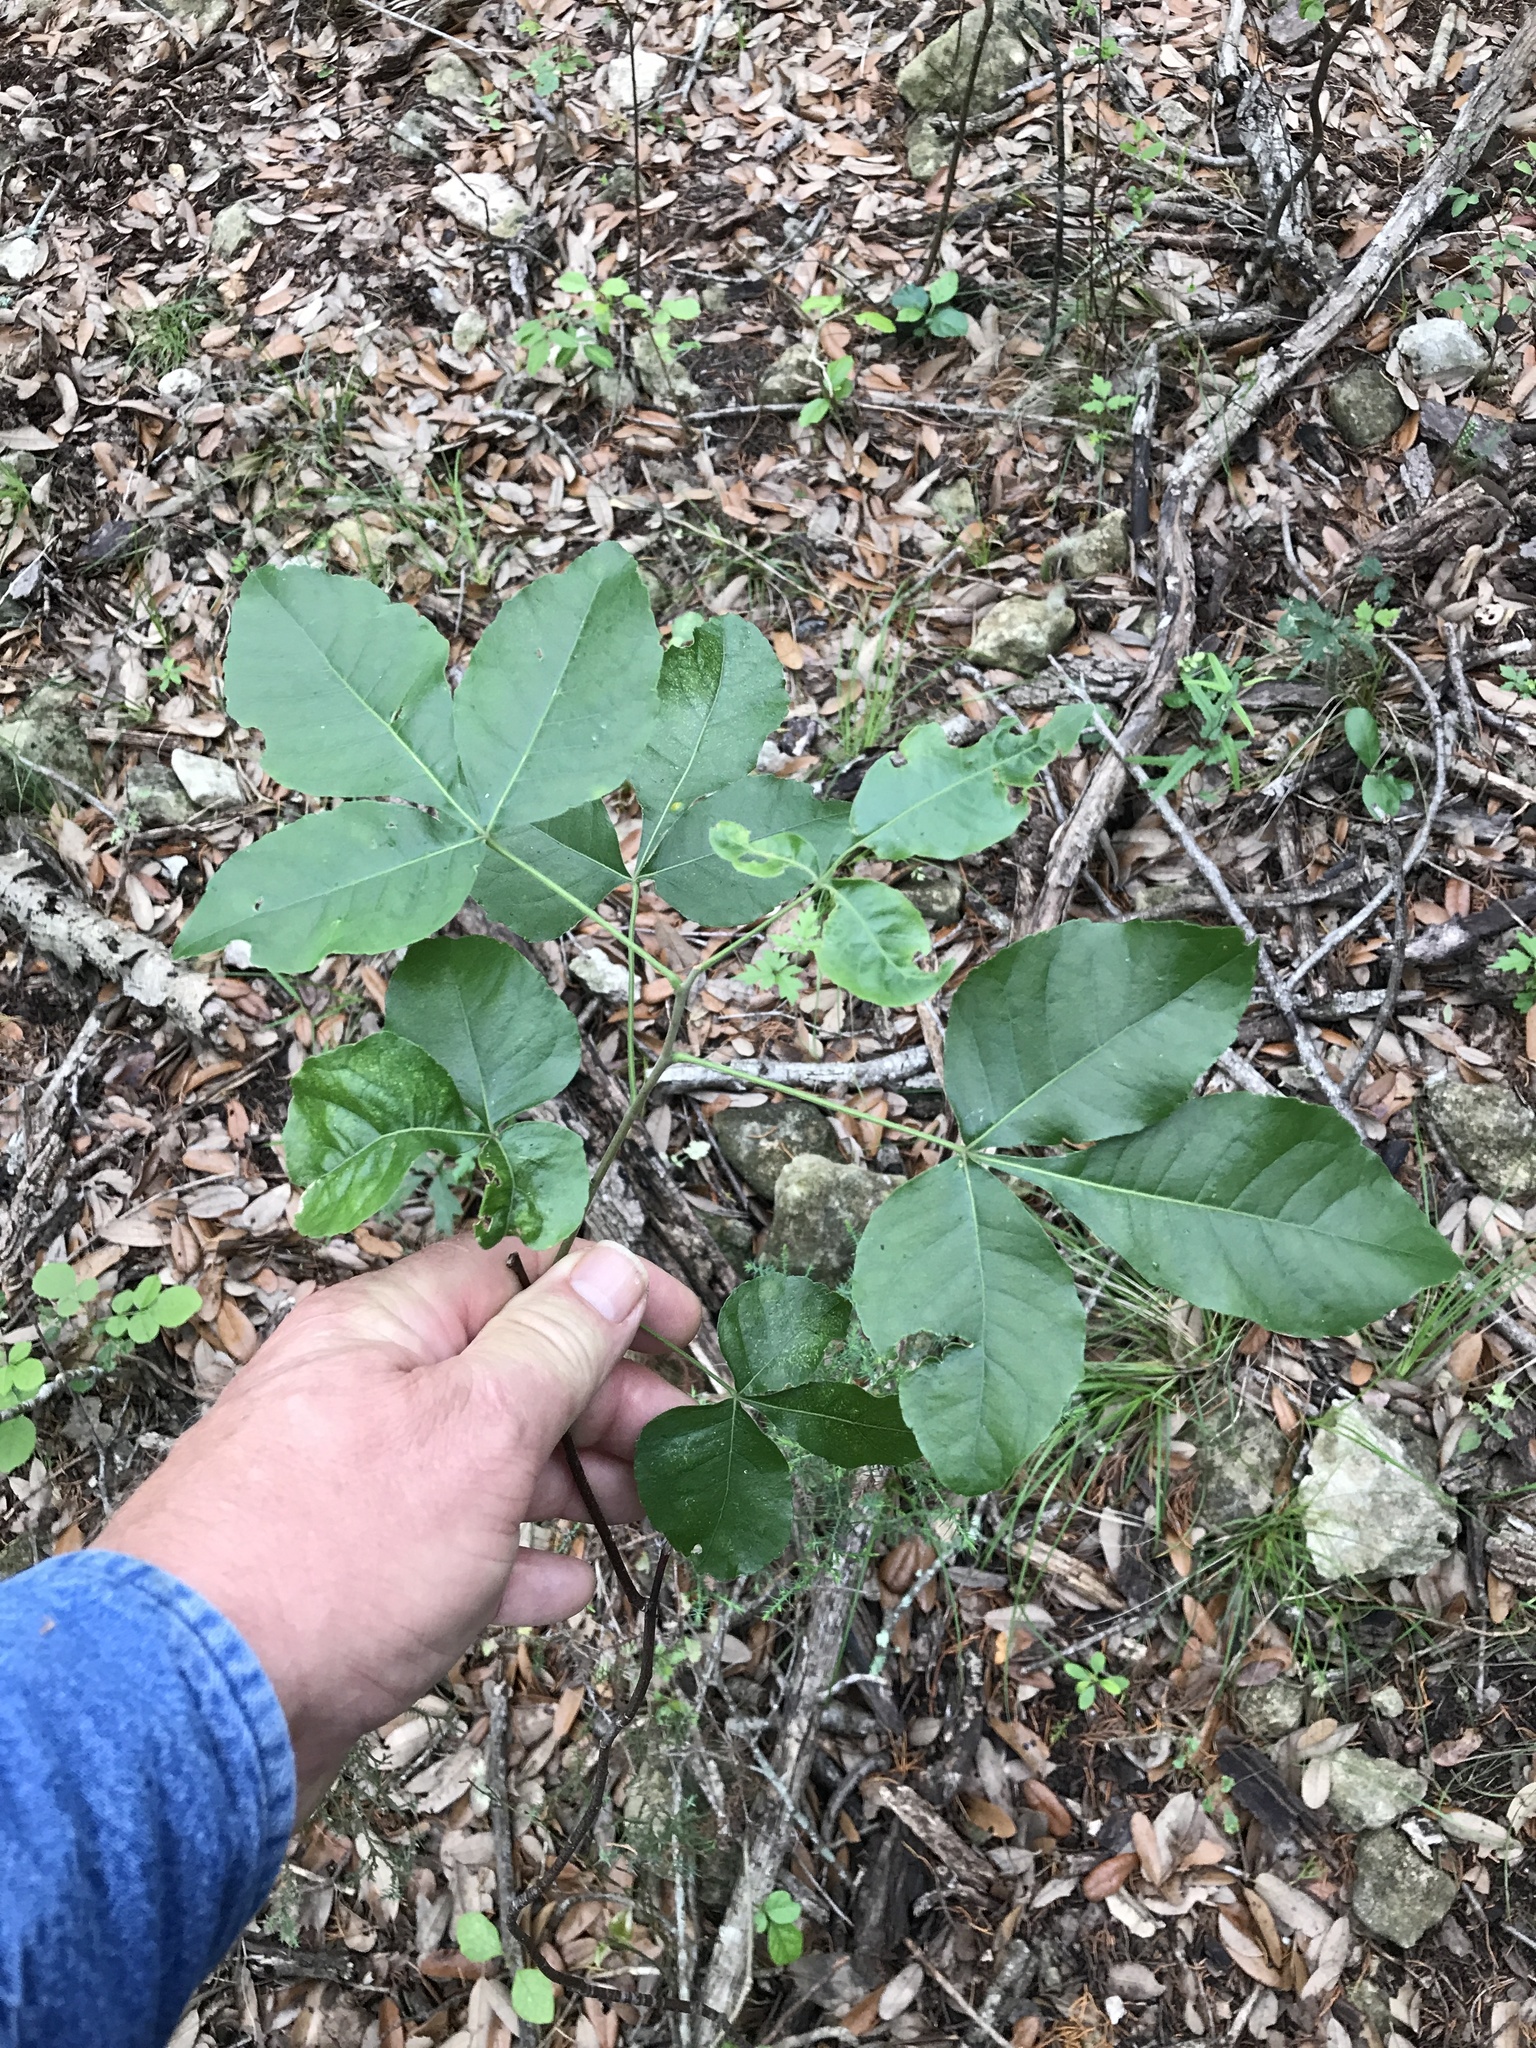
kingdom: Plantae
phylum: Tracheophyta
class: Magnoliopsida
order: Sapindales
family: Rutaceae
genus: Ptelea
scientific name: Ptelea trifoliata
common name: Common hop-tree
